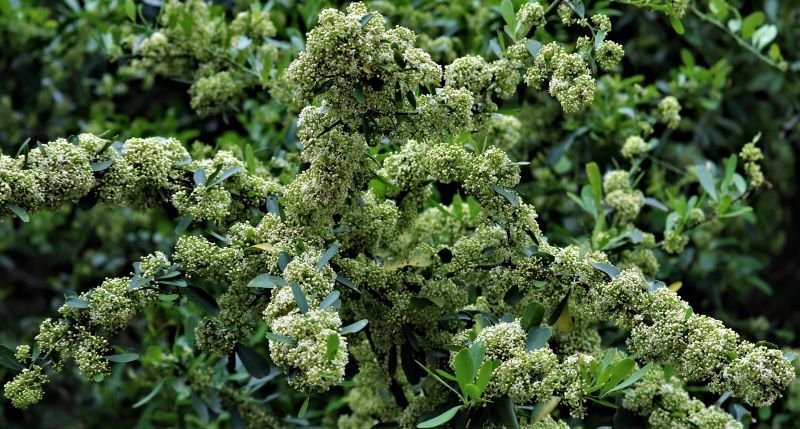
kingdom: Plantae
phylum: Tracheophyta
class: Magnoliopsida
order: Celastrales
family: Celastraceae
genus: Gymnosporia
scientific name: Gymnosporia buxifolia
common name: Common spike-thorn
